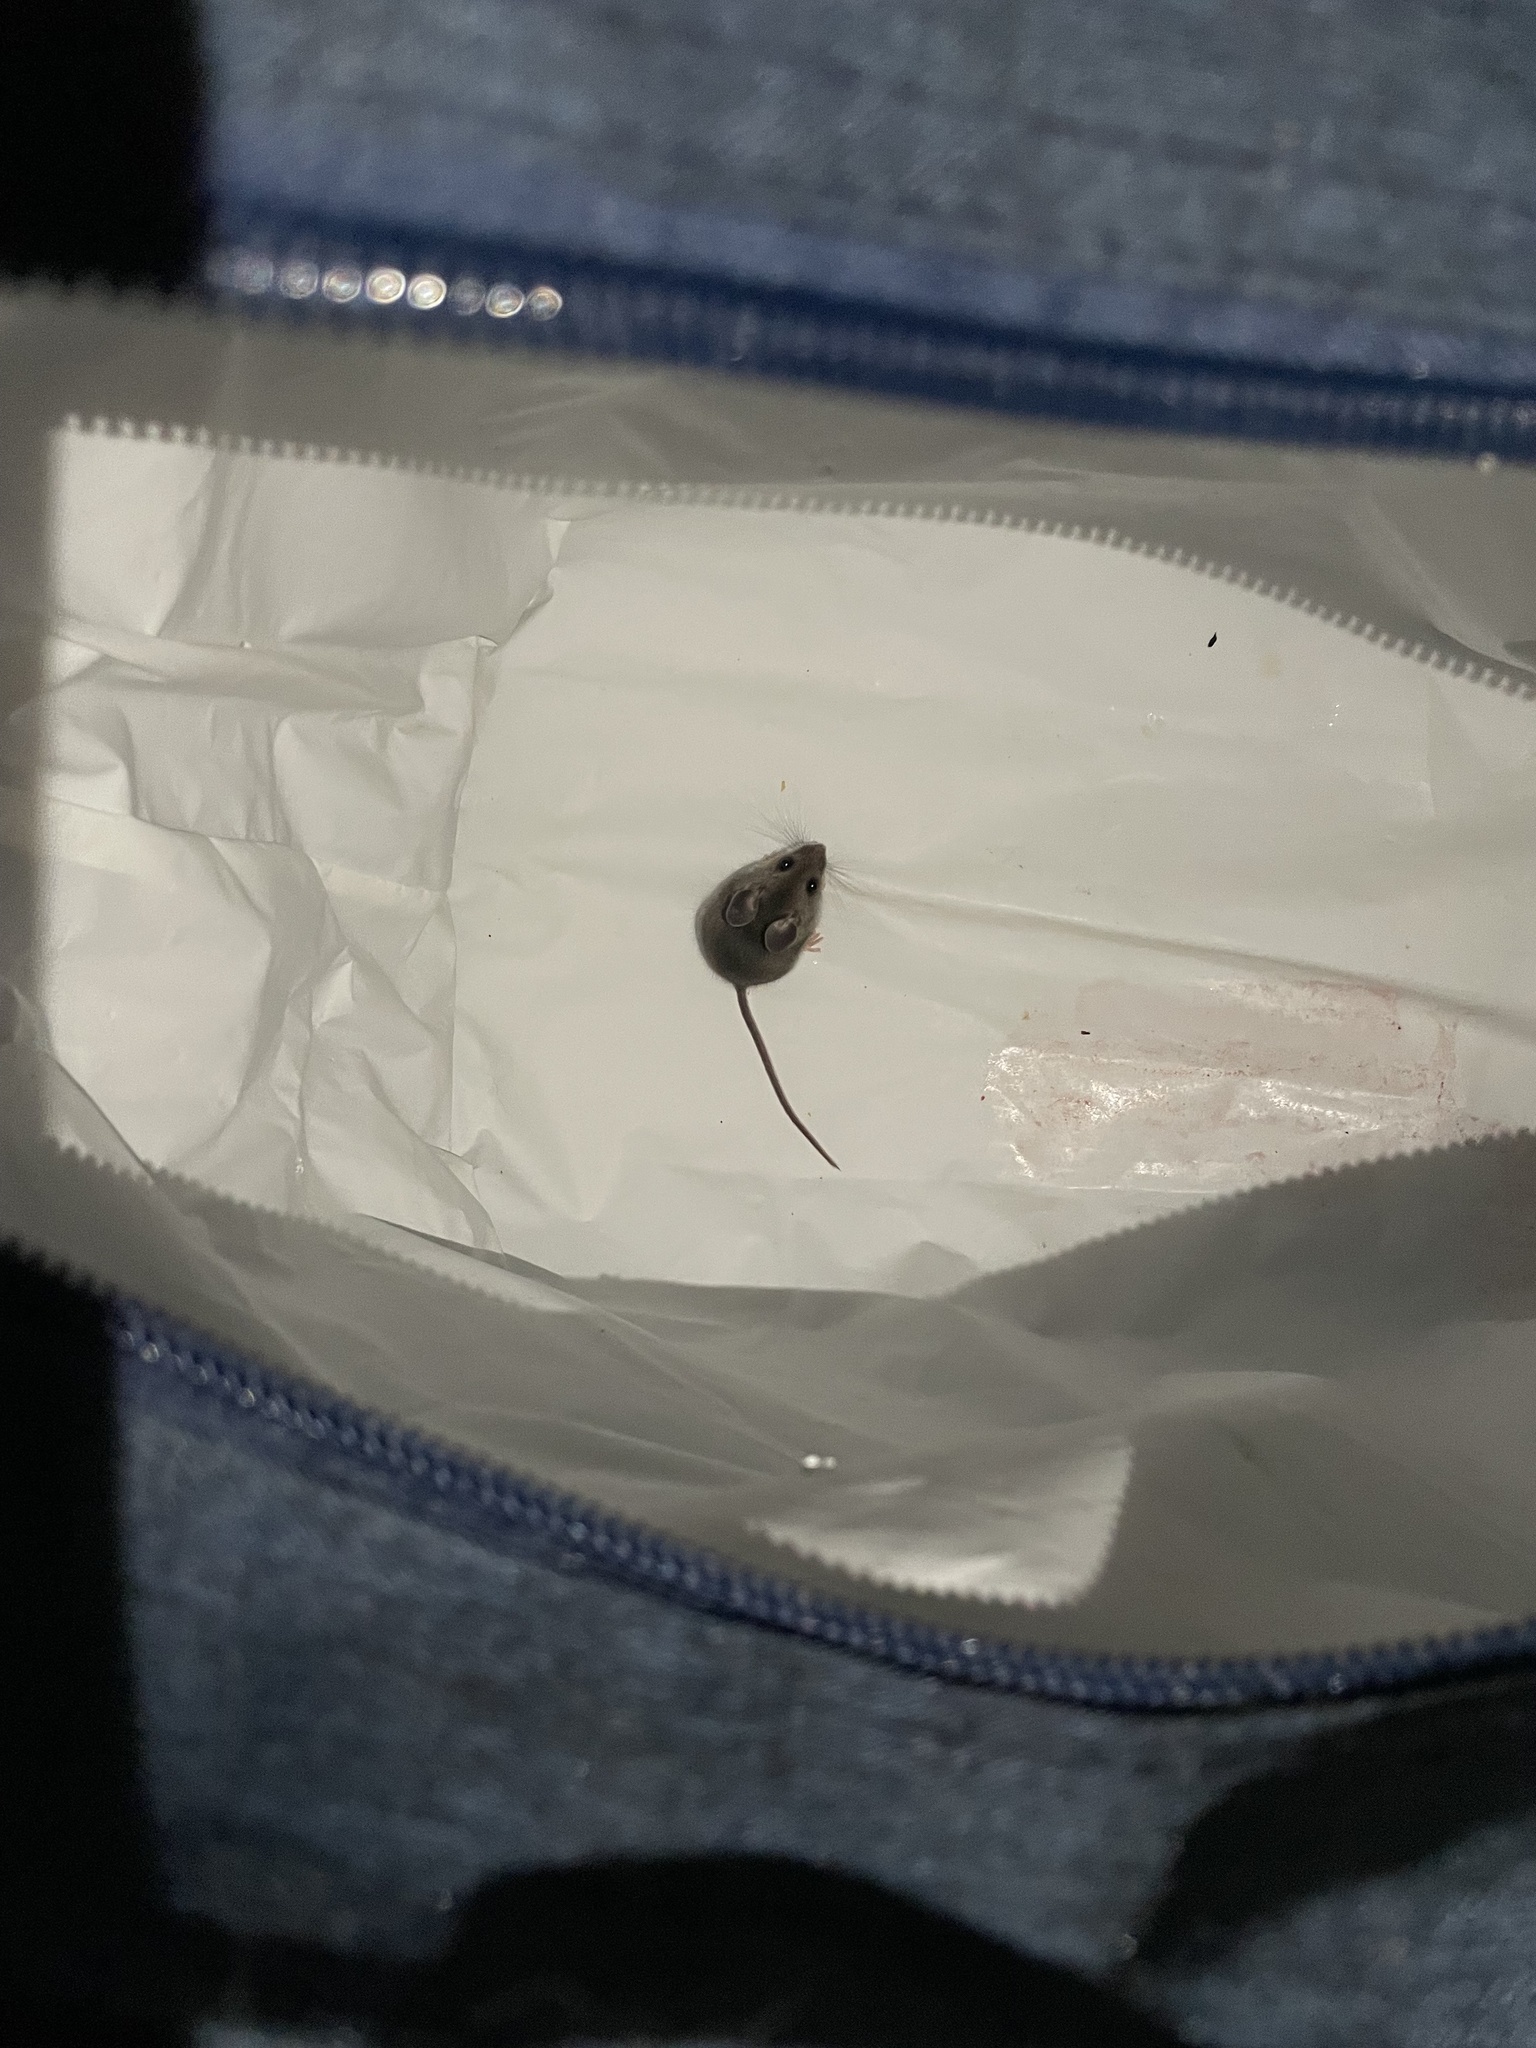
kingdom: Animalia
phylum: Chordata
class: Mammalia
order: Rodentia
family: Cricetidae
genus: Peromyscus
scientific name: Peromyscus
